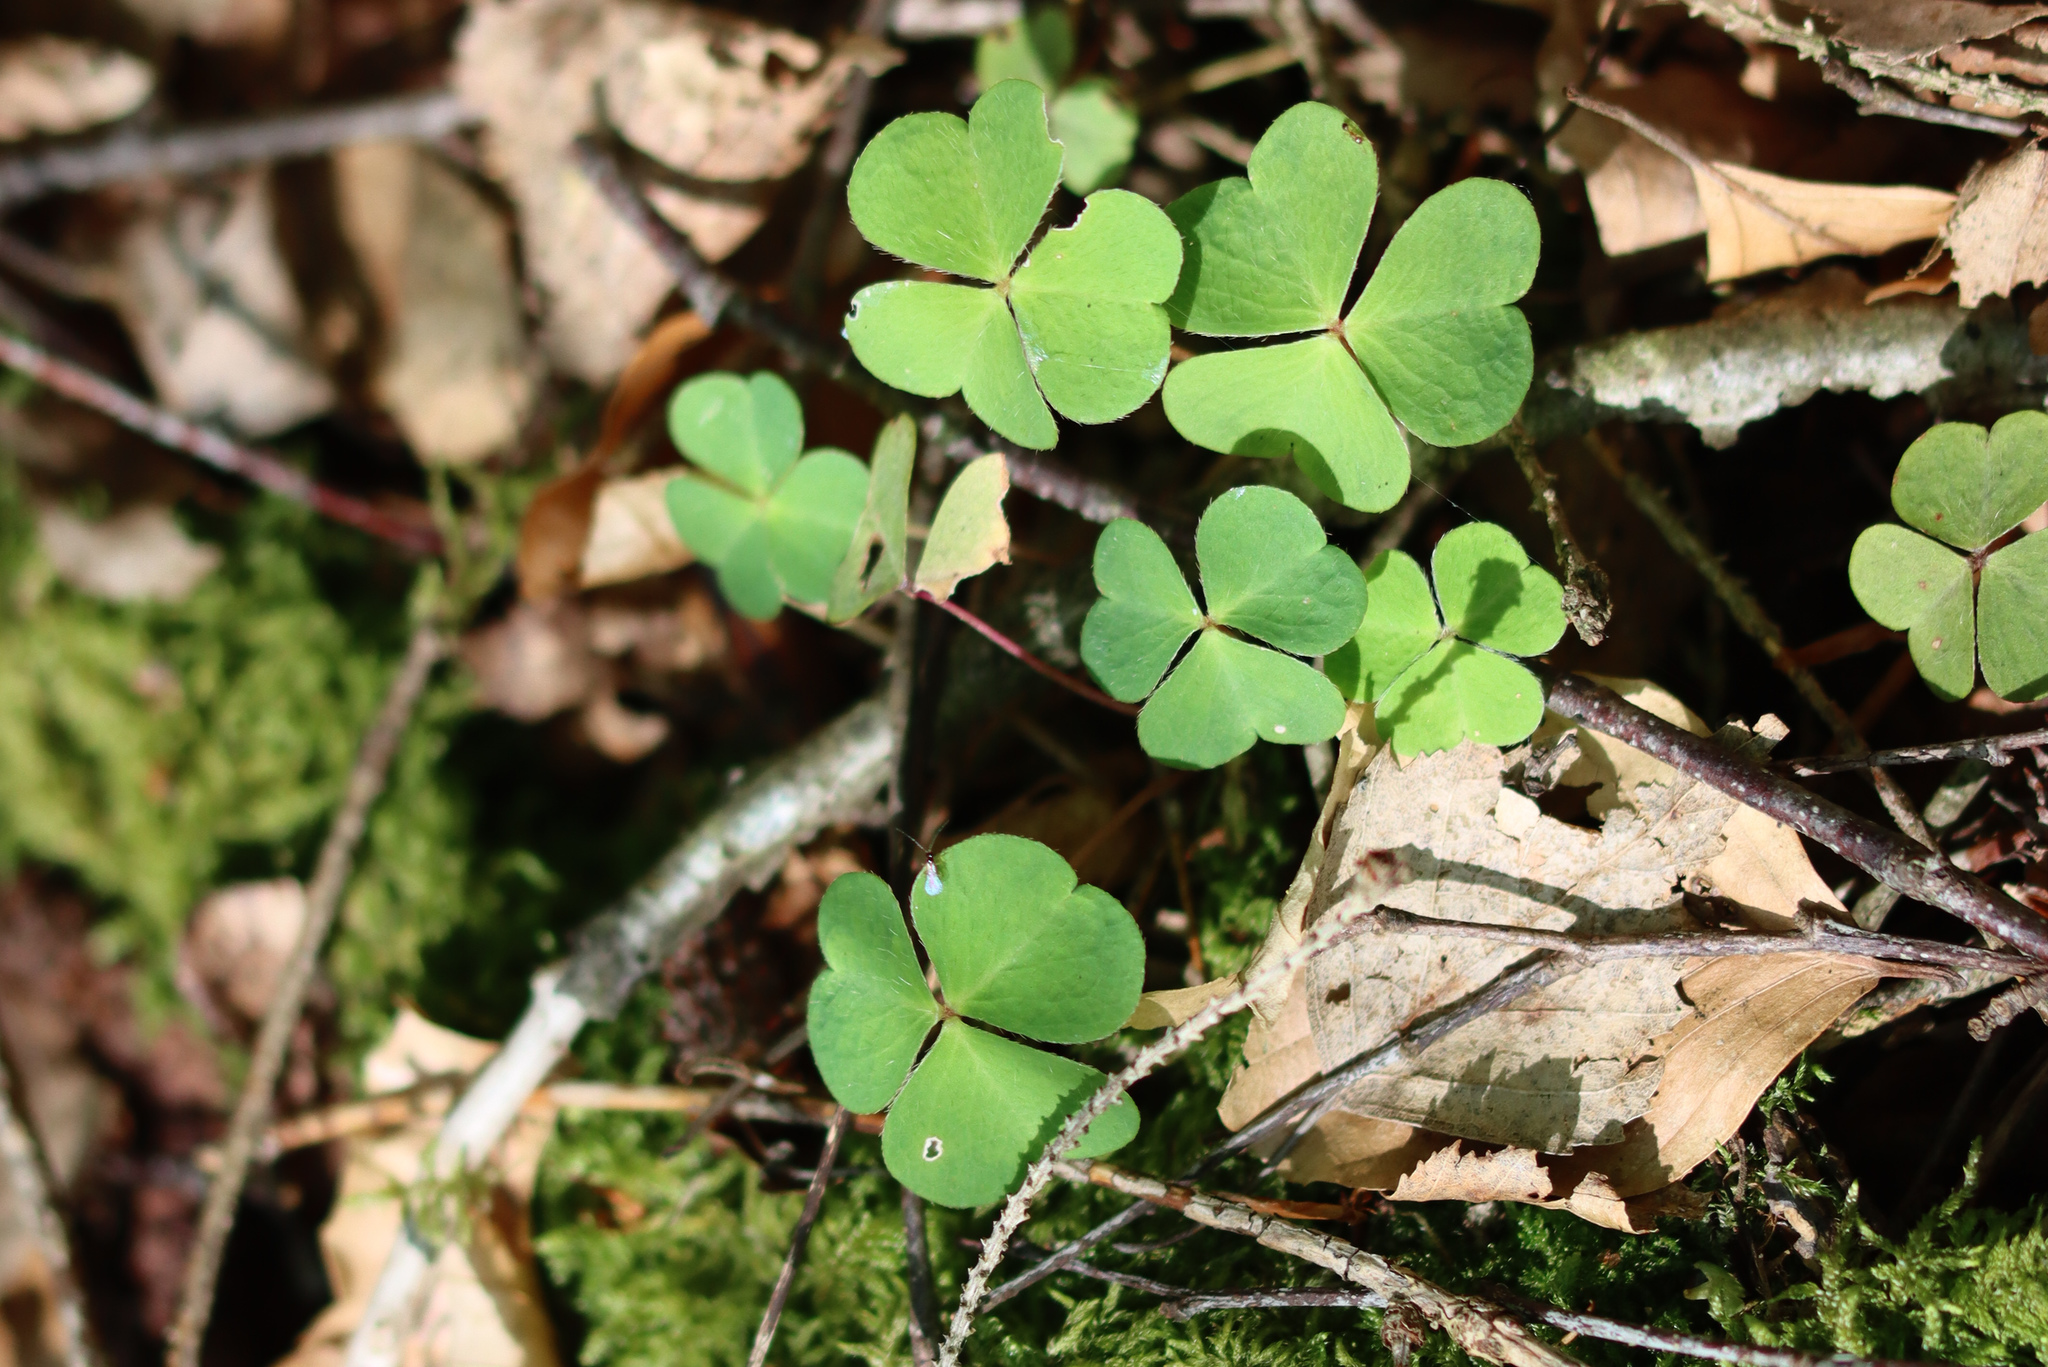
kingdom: Plantae
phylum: Tracheophyta
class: Magnoliopsida
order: Oxalidales
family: Oxalidaceae
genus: Oxalis
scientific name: Oxalis acetosella
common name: Wood-sorrel
